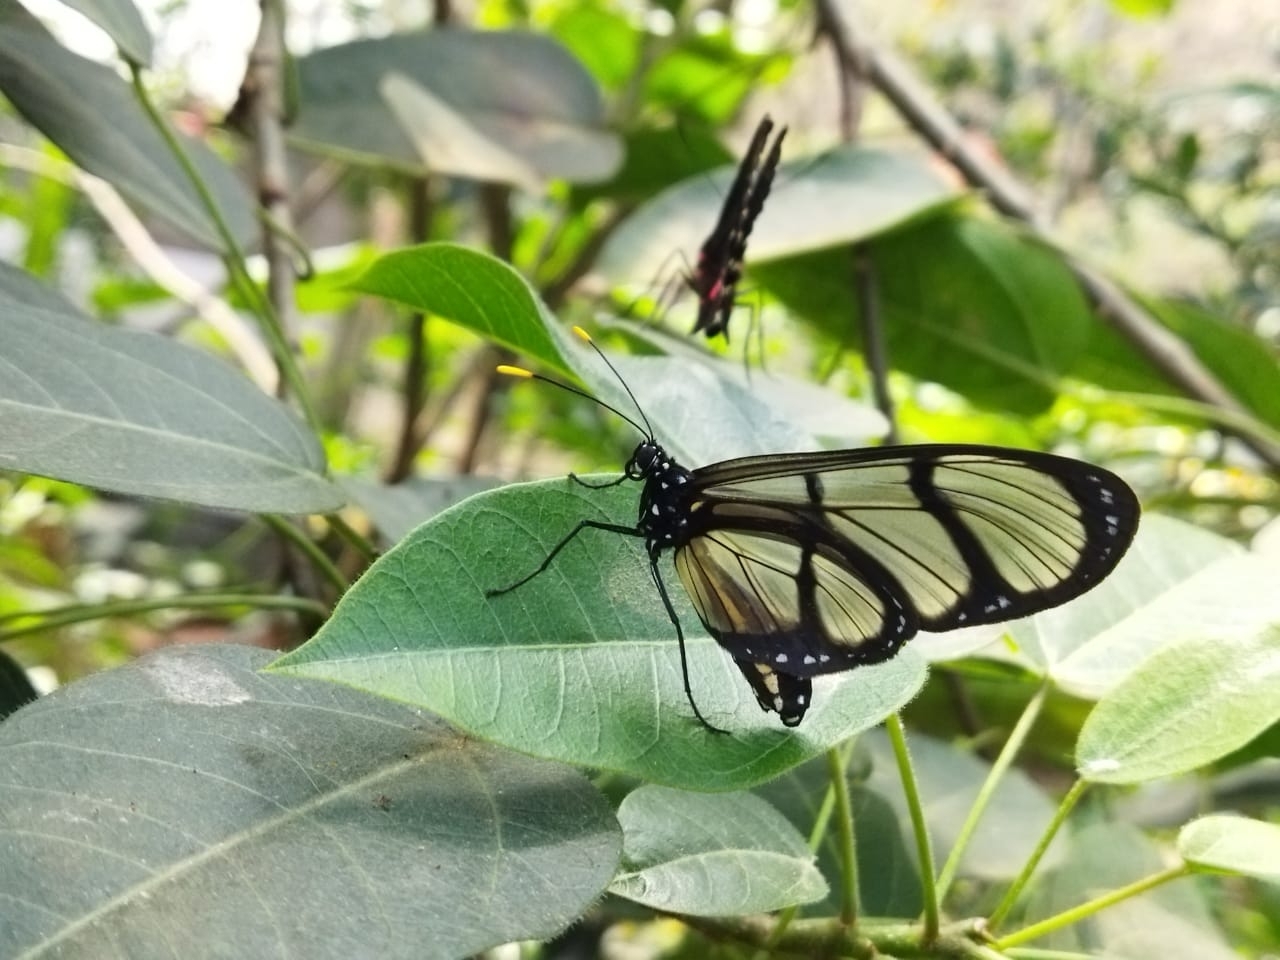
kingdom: Animalia
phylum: Arthropoda
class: Insecta
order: Lepidoptera
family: Nymphalidae
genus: Methona
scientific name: Methona confusa
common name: Confusa tigerwing
